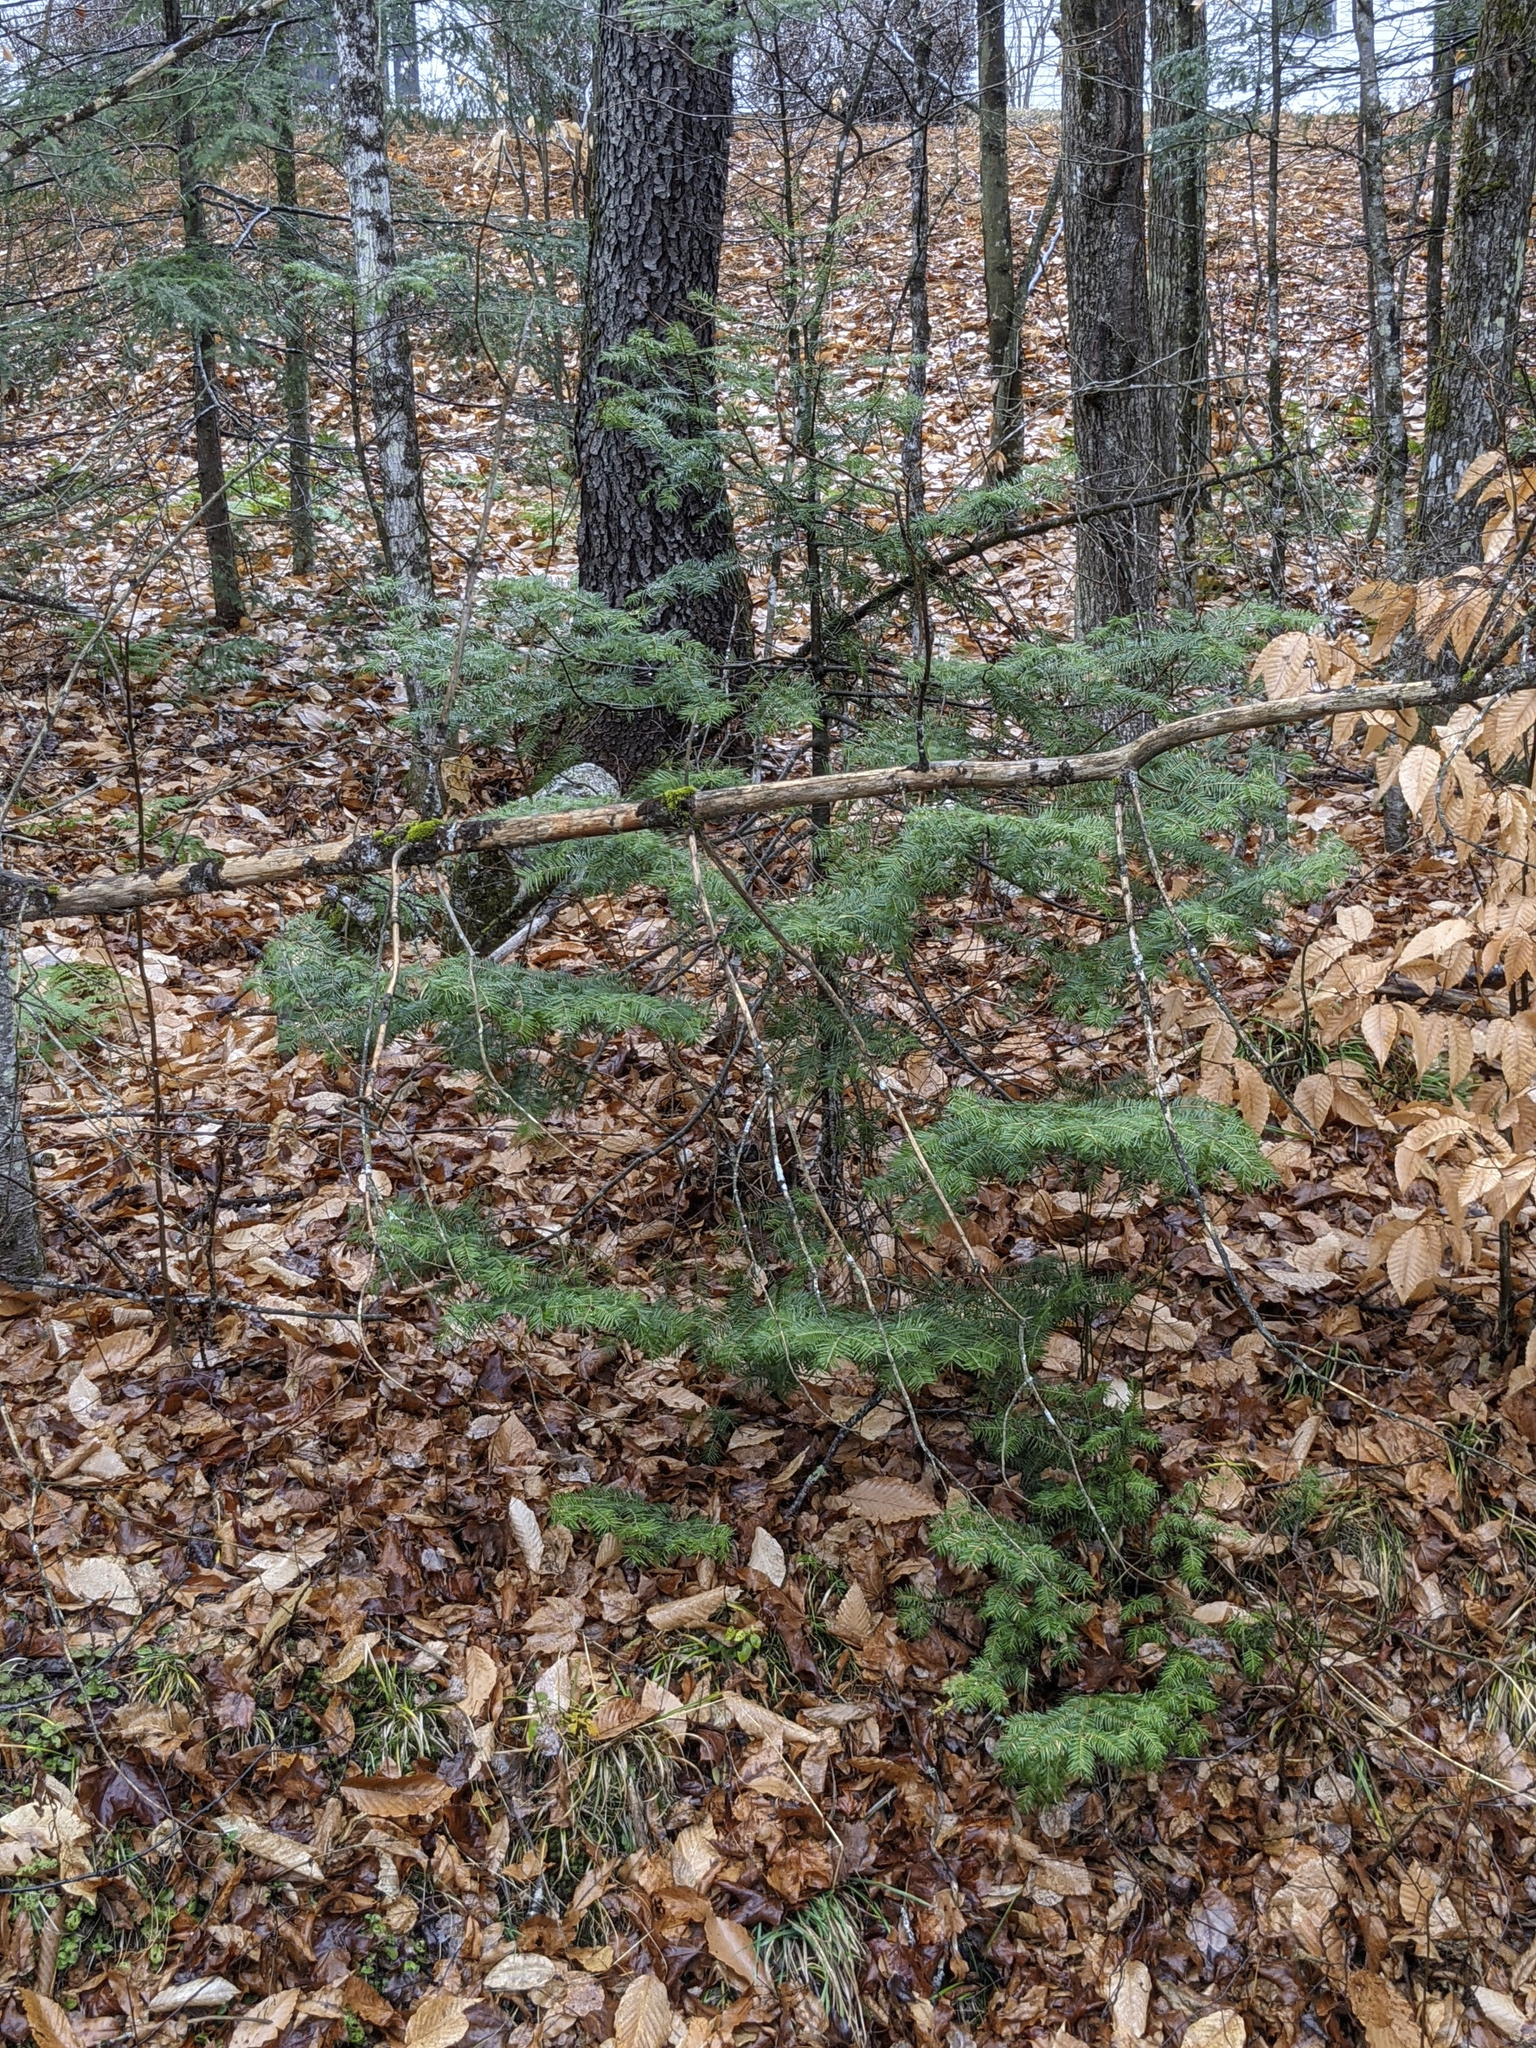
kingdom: Plantae
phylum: Tracheophyta
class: Pinopsida
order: Pinales
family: Pinaceae
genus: Abies
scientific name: Abies balsamea
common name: Balsam fir
